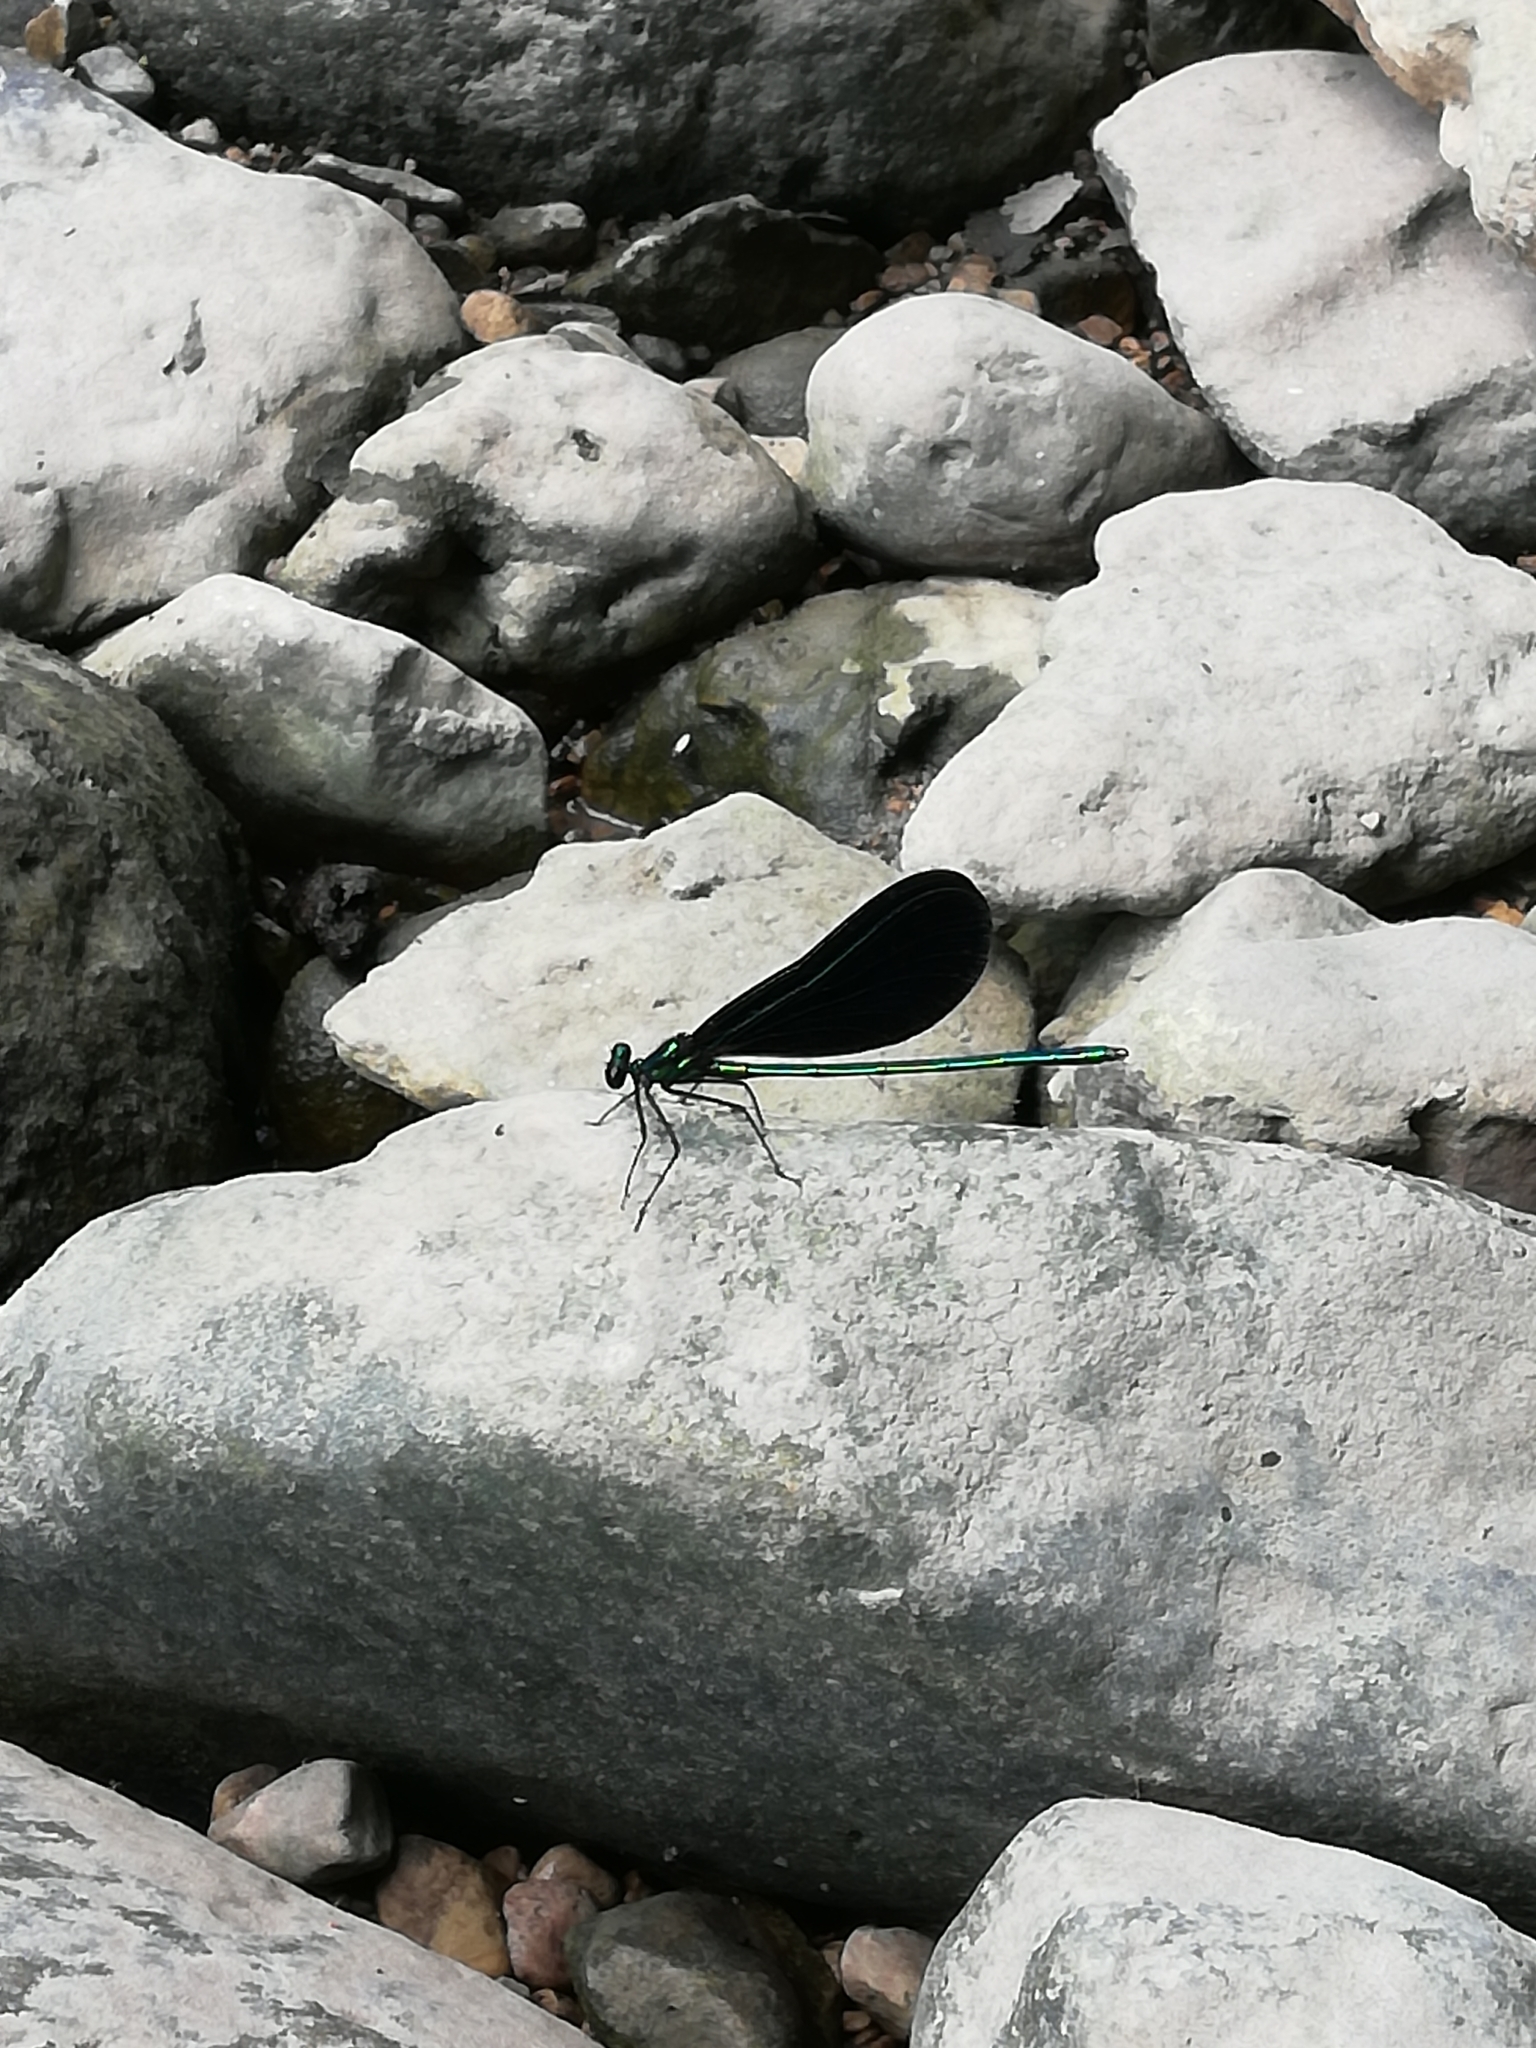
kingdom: Animalia
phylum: Arthropoda
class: Insecta
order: Odonata
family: Calopterygidae
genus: Calopteryx
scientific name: Calopteryx maculata
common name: Ebony jewelwing
